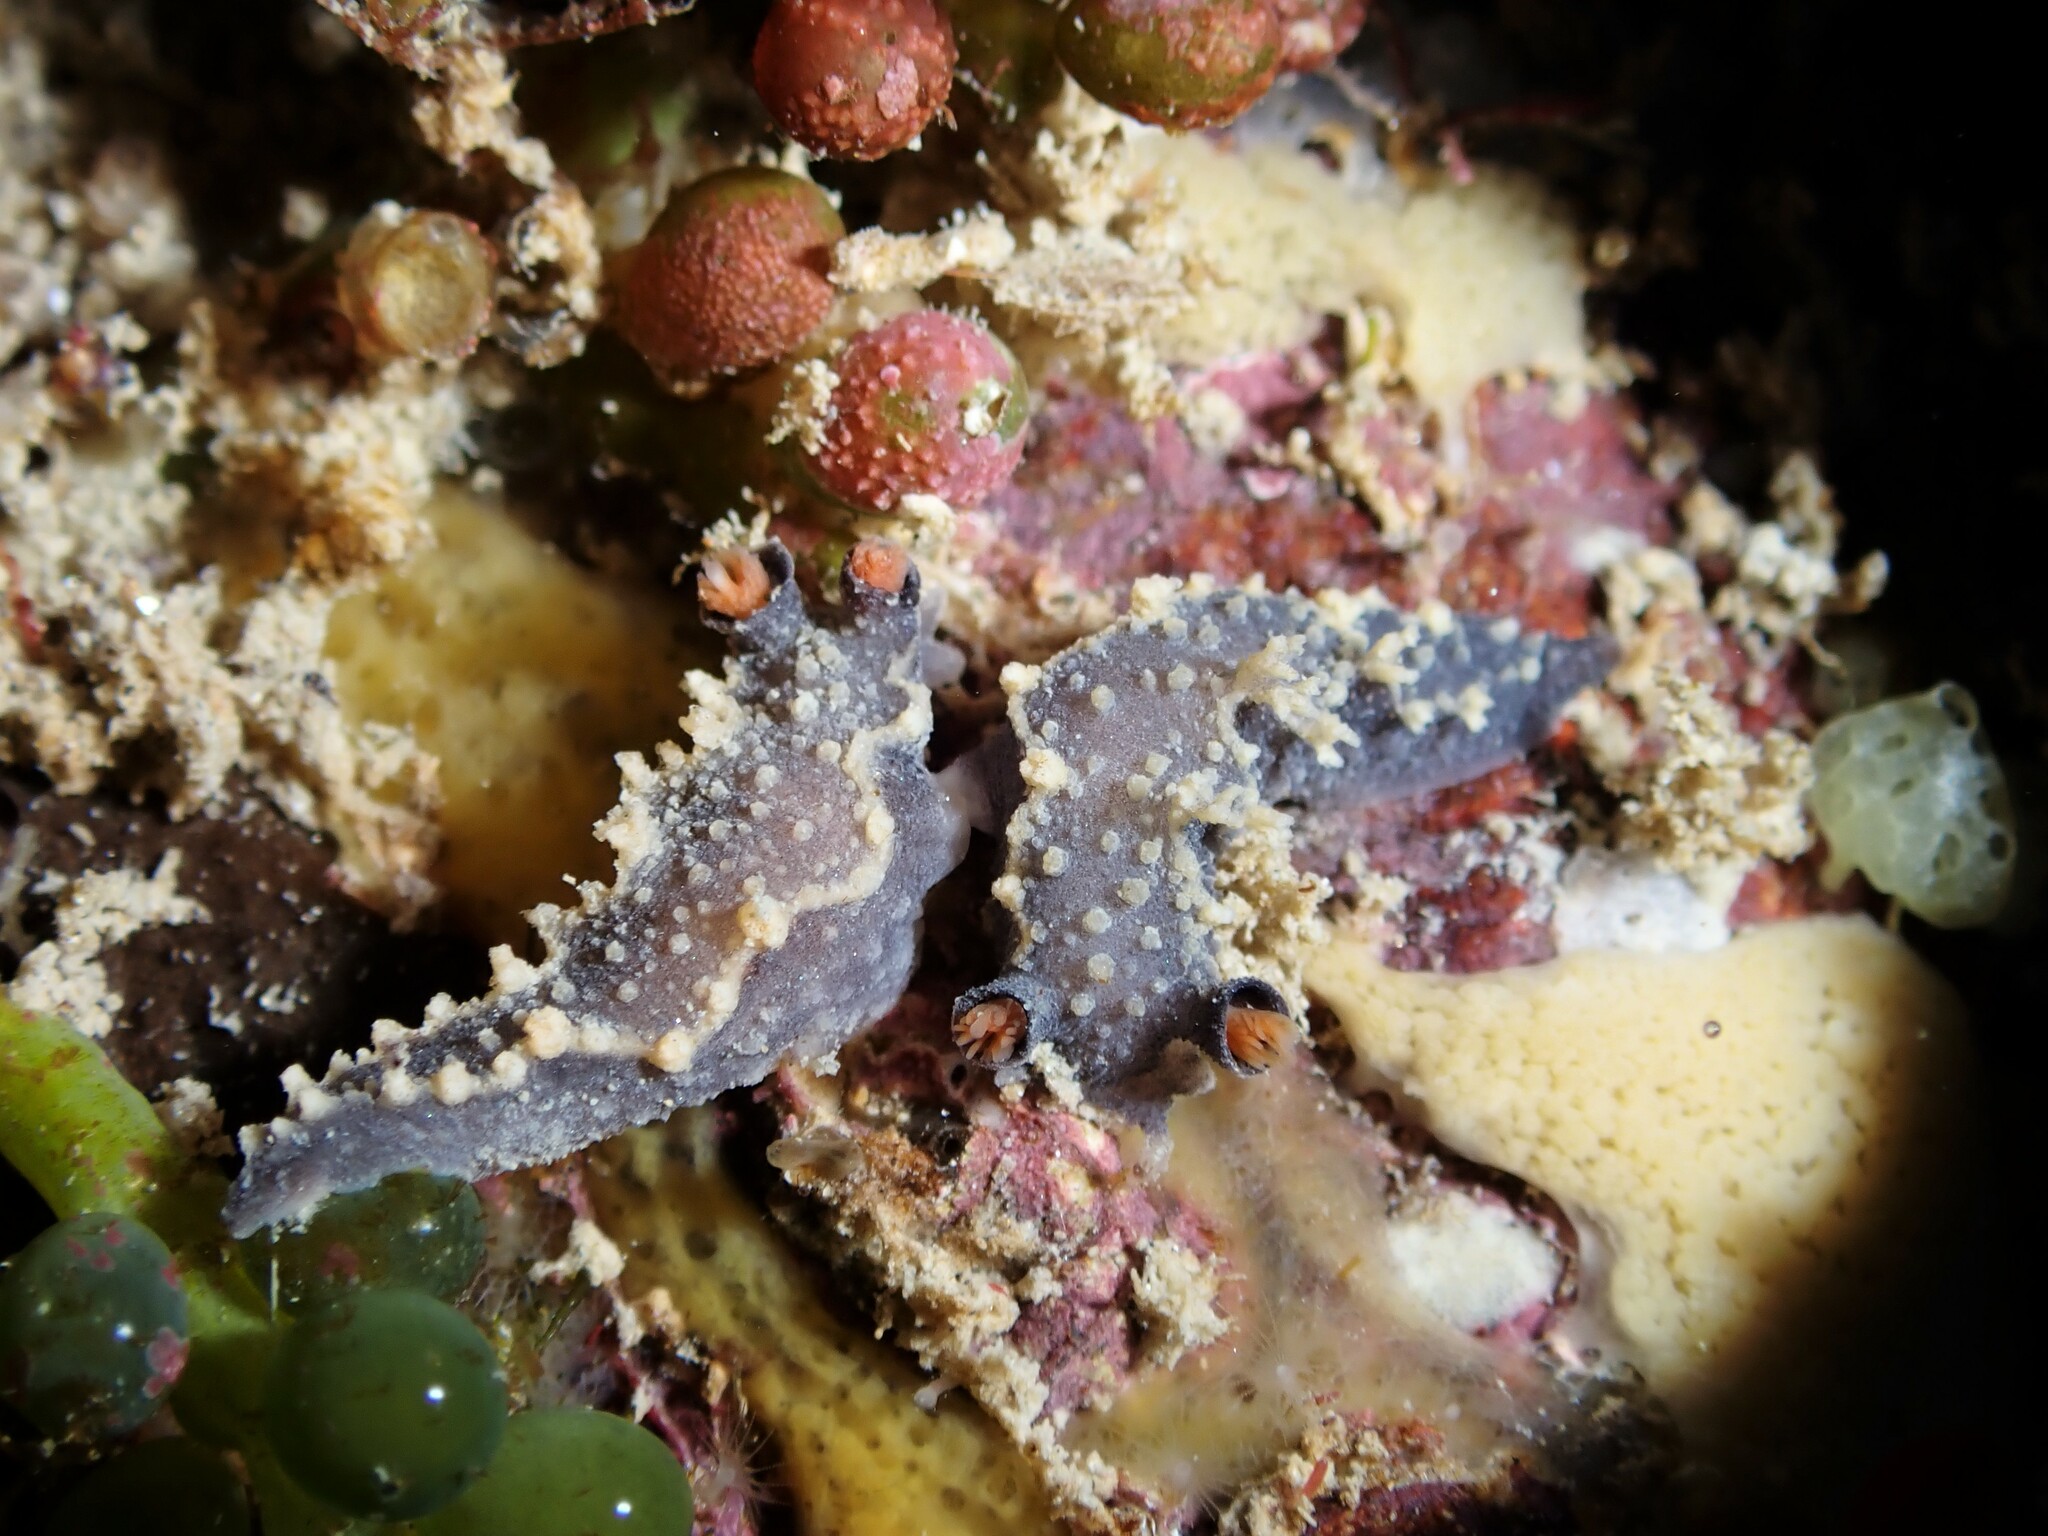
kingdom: Animalia
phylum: Mollusca
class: Gastropoda
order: Nudibranchia
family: Tritoniidae
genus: Tritonia
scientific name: Tritonia flemingi
